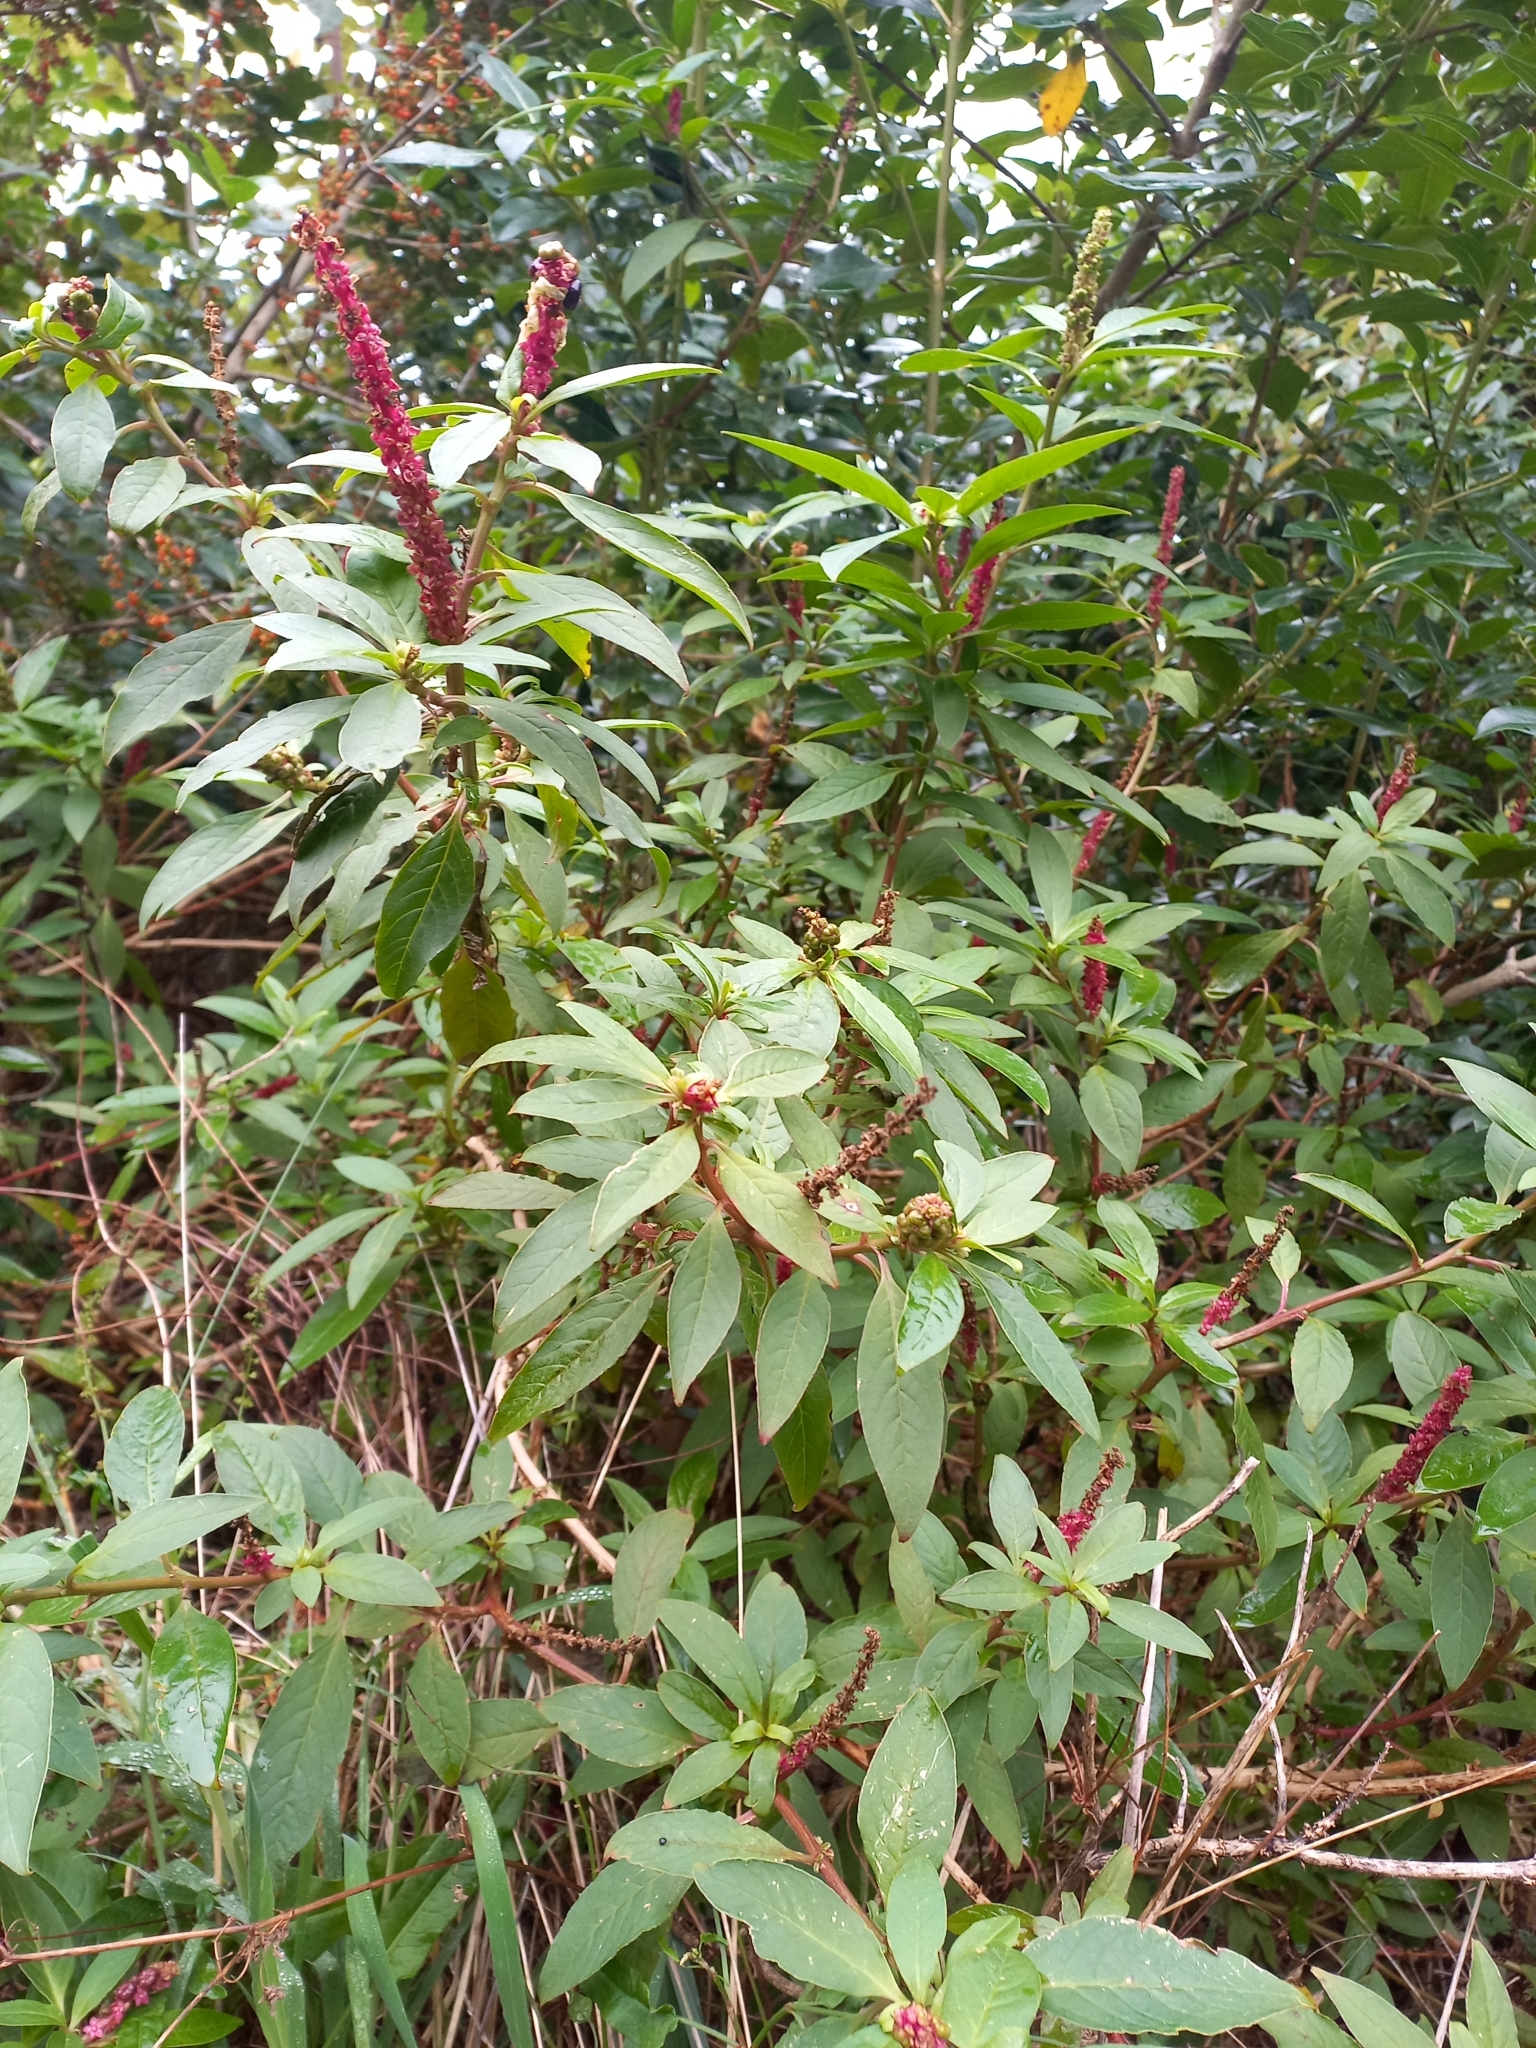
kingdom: Plantae
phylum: Tracheophyta
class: Magnoliopsida
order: Caryophyllales
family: Phytolaccaceae
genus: Phytolacca
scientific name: Phytolacca icosandra
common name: Button pokeweed
